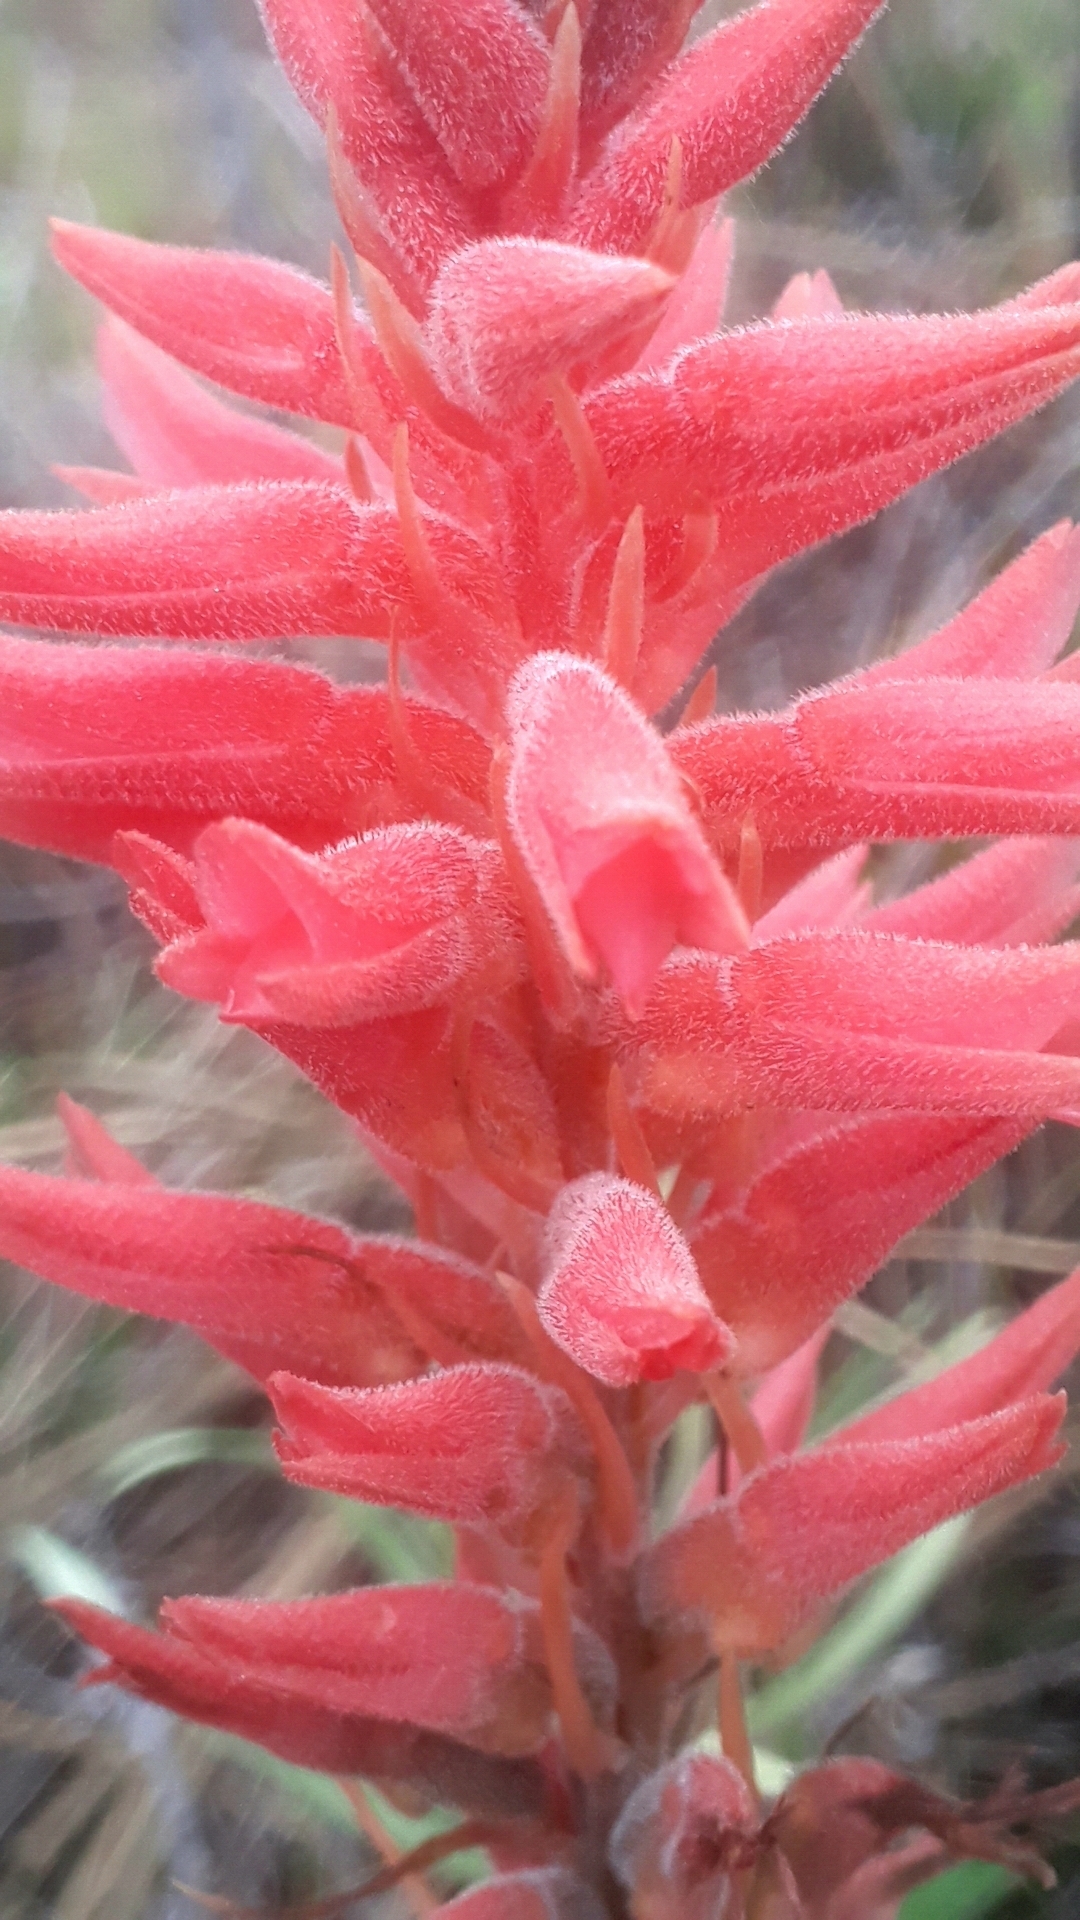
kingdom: Plantae
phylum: Tracheophyta
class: Liliopsida
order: Asparagales
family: Orchidaceae
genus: Sacoila
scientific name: Sacoila lanceolata
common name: Leafless beaked ladiestresses
